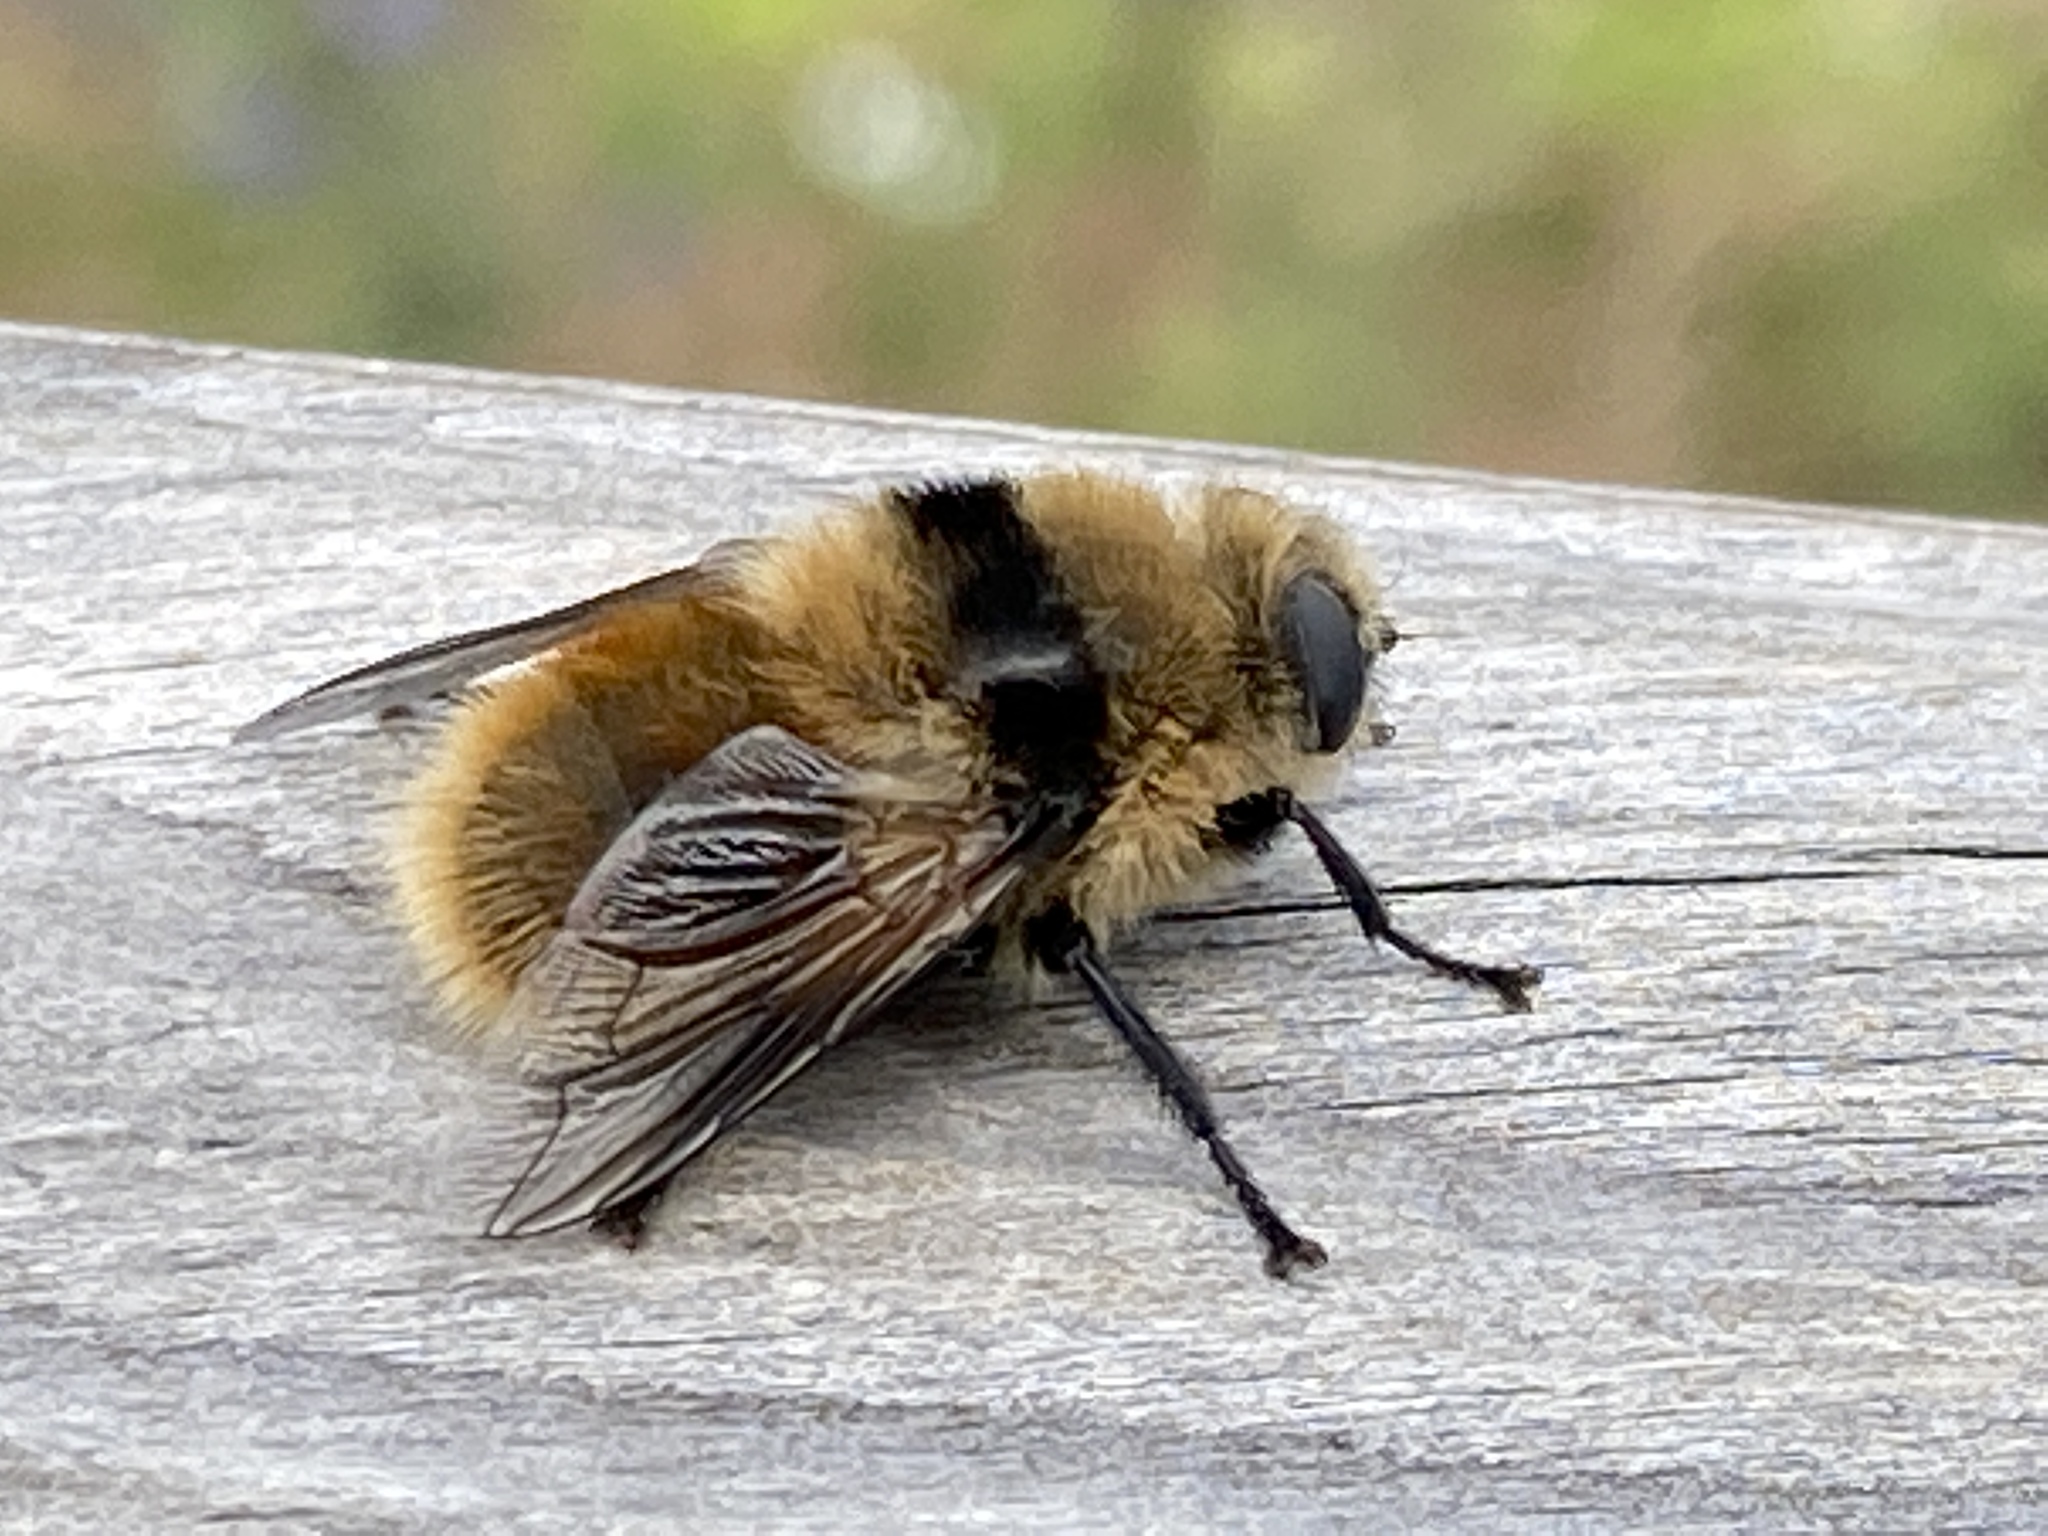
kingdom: Animalia
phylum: Arthropoda
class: Insecta
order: Diptera
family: Oestridae
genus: Cephenemyia
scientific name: Cephenemyia stimulator
